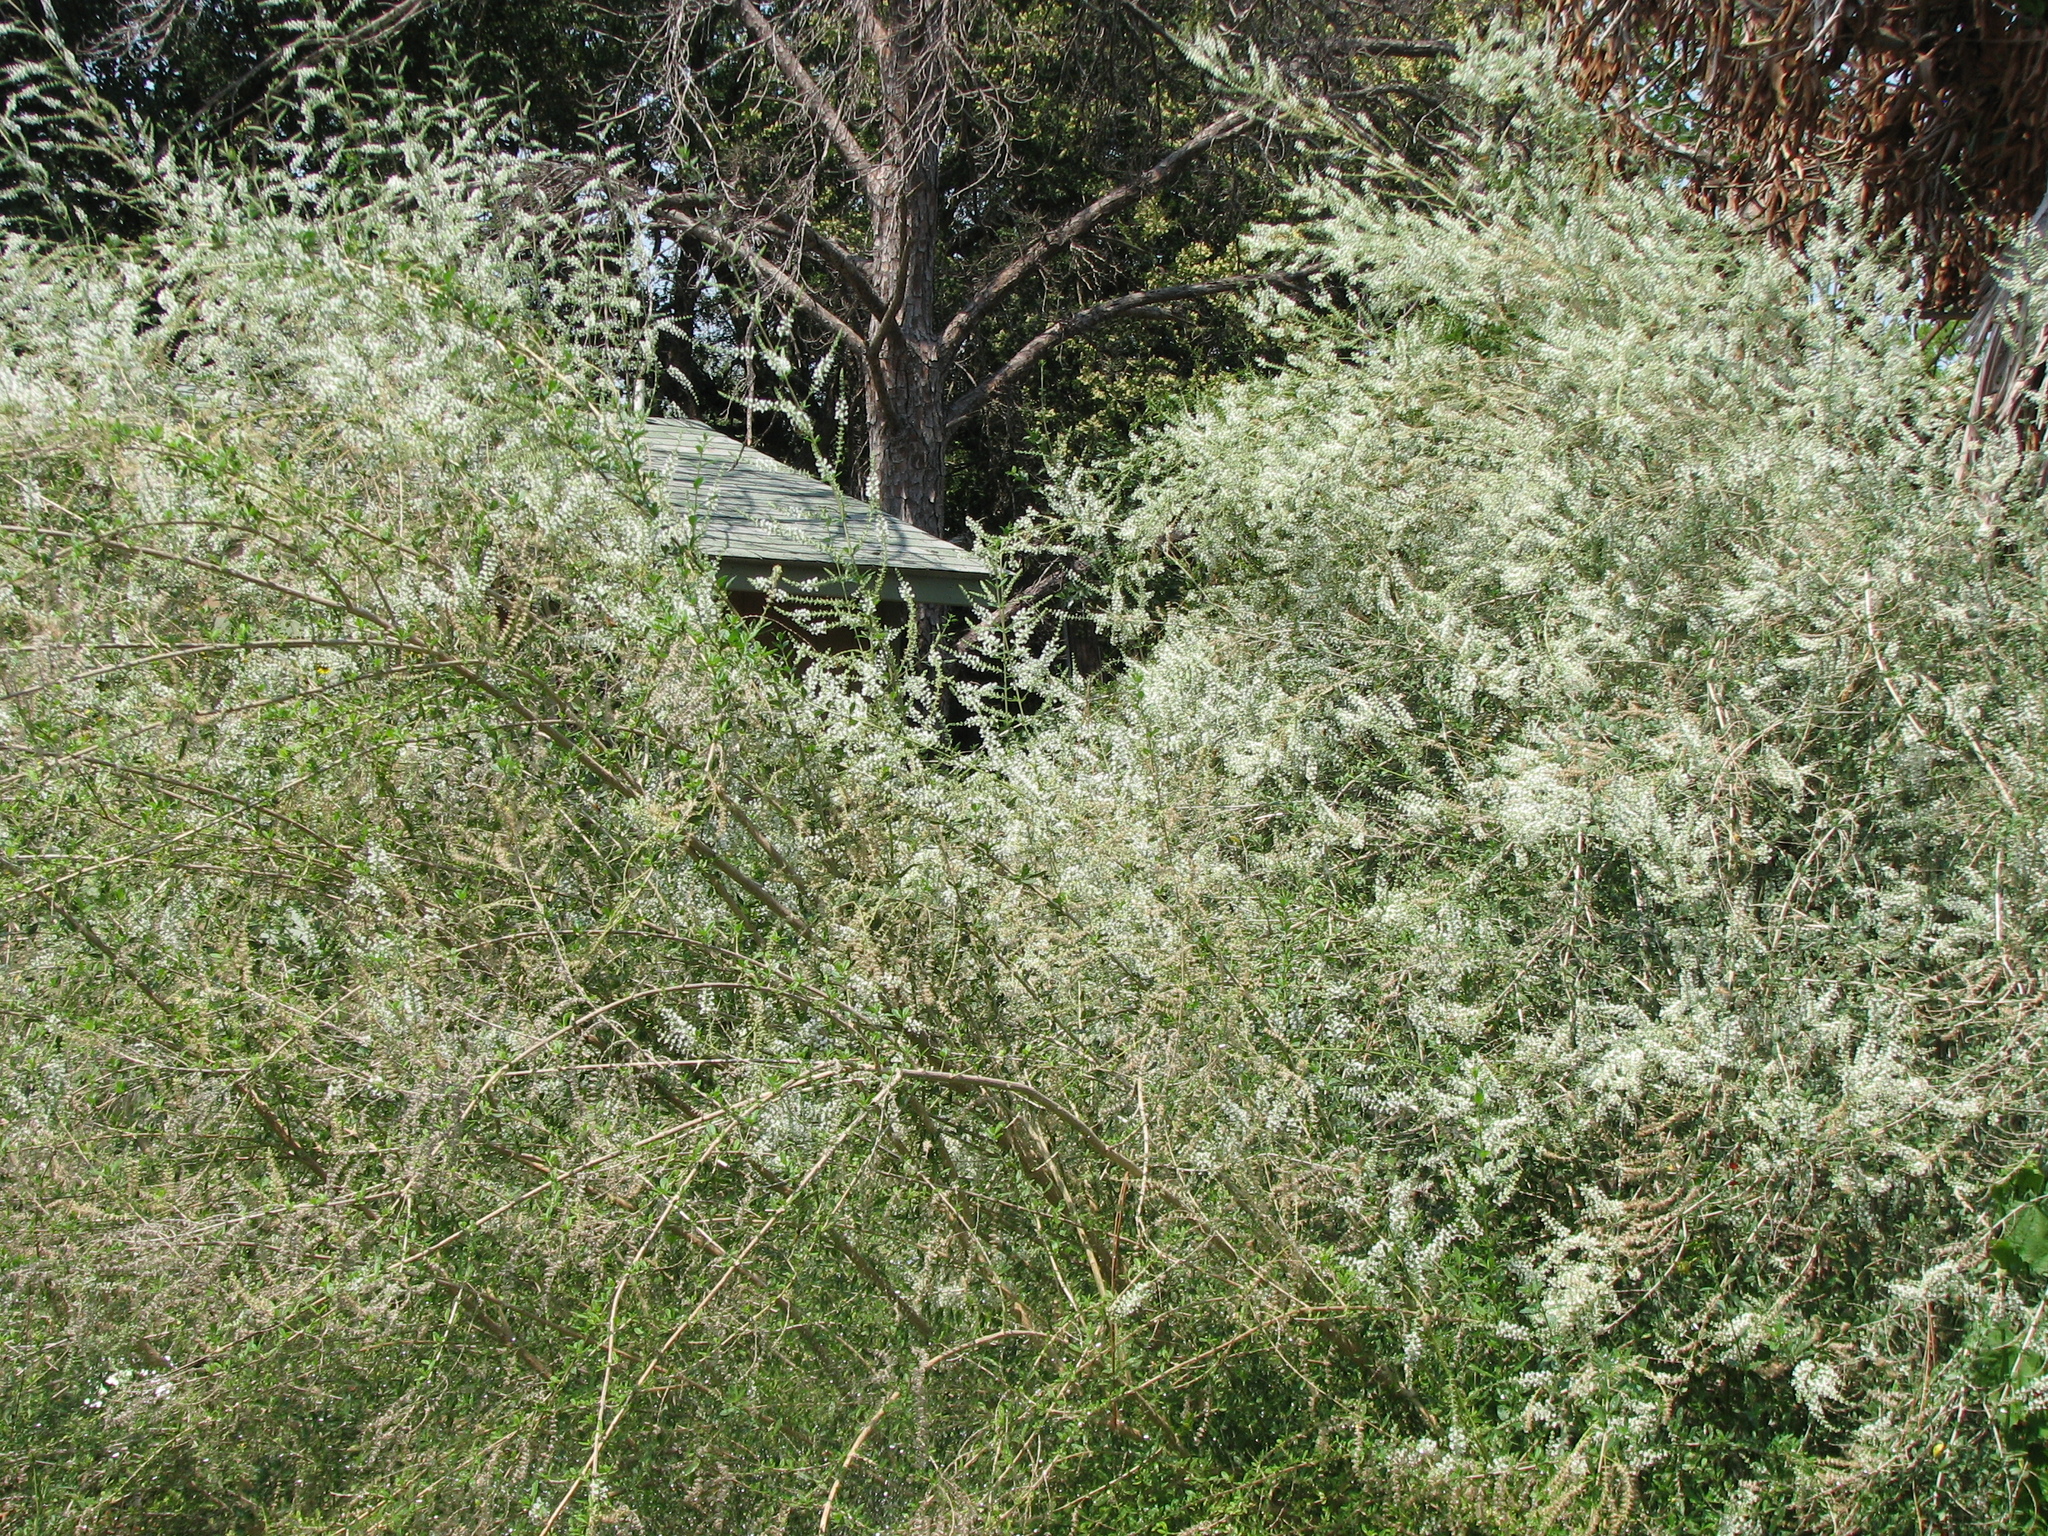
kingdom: Plantae
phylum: Tracheophyta
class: Magnoliopsida
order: Lamiales
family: Verbenaceae
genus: Aloysia
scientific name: Aloysia gratissima
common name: Common bee-brush
